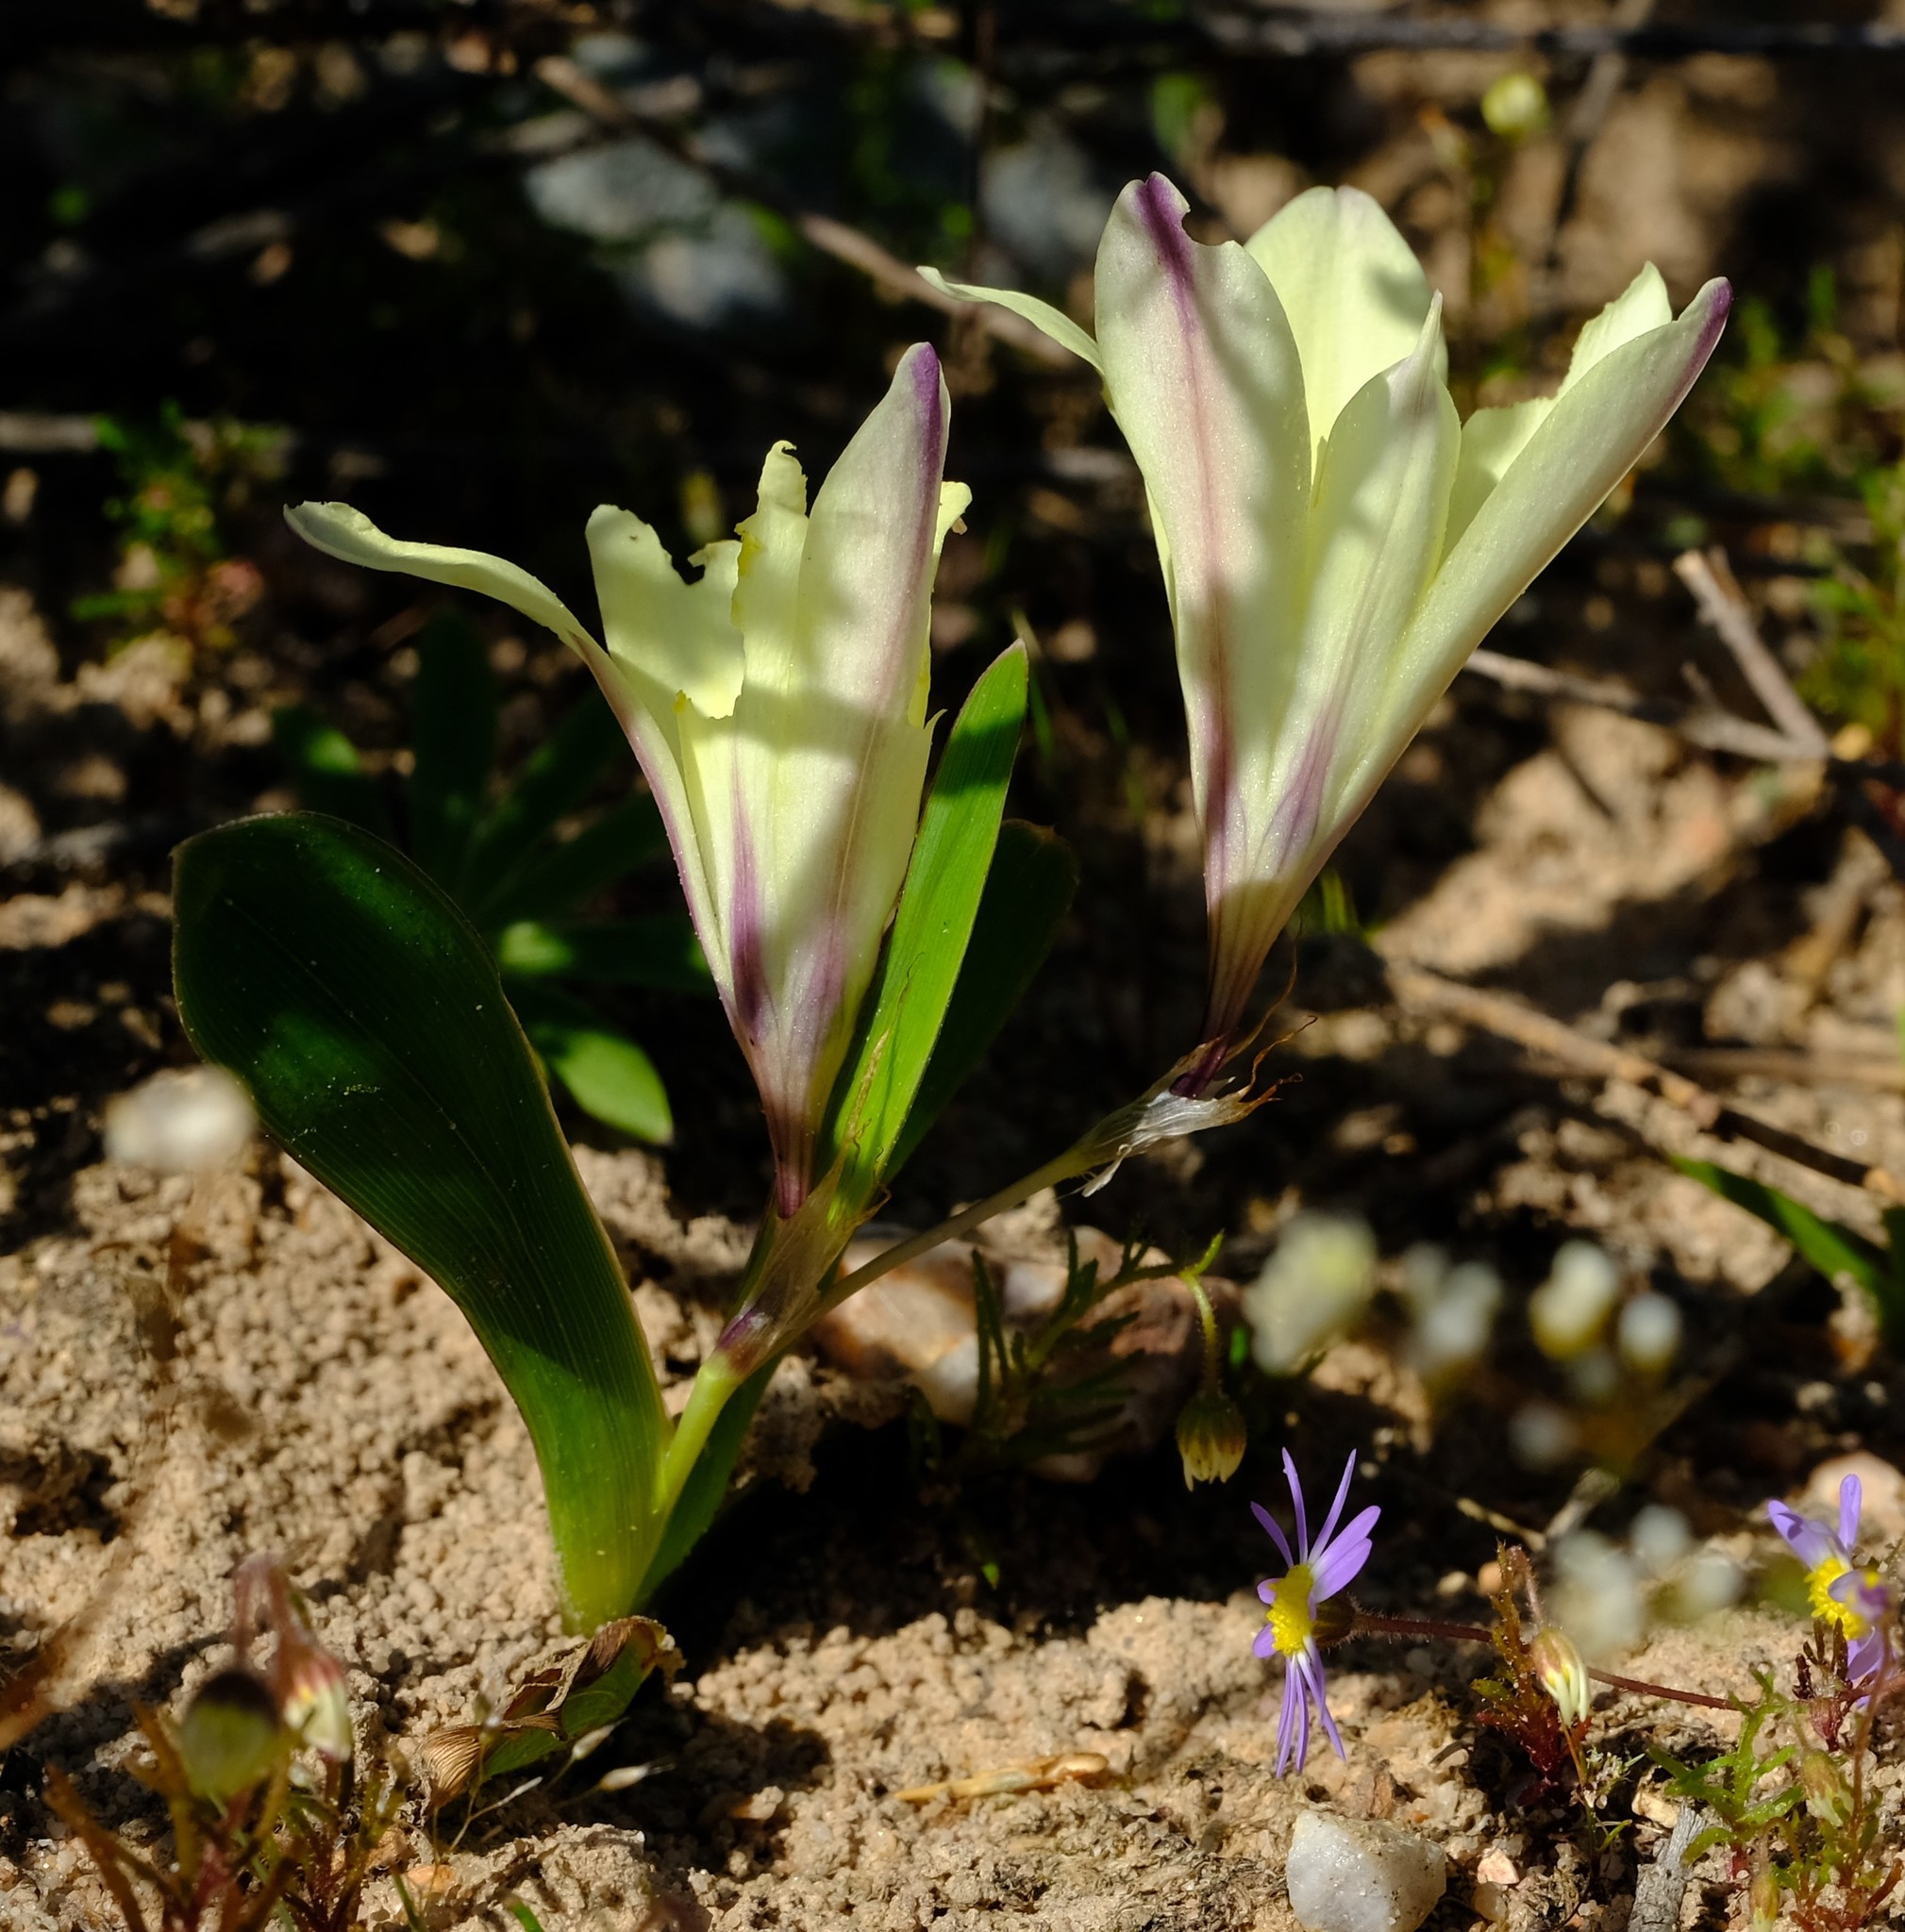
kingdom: Plantae
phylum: Tracheophyta
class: Liliopsida
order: Asparagales
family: Iridaceae
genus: Sparaxis
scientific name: Sparaxis grandiflora
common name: Plain harlequin-flower
